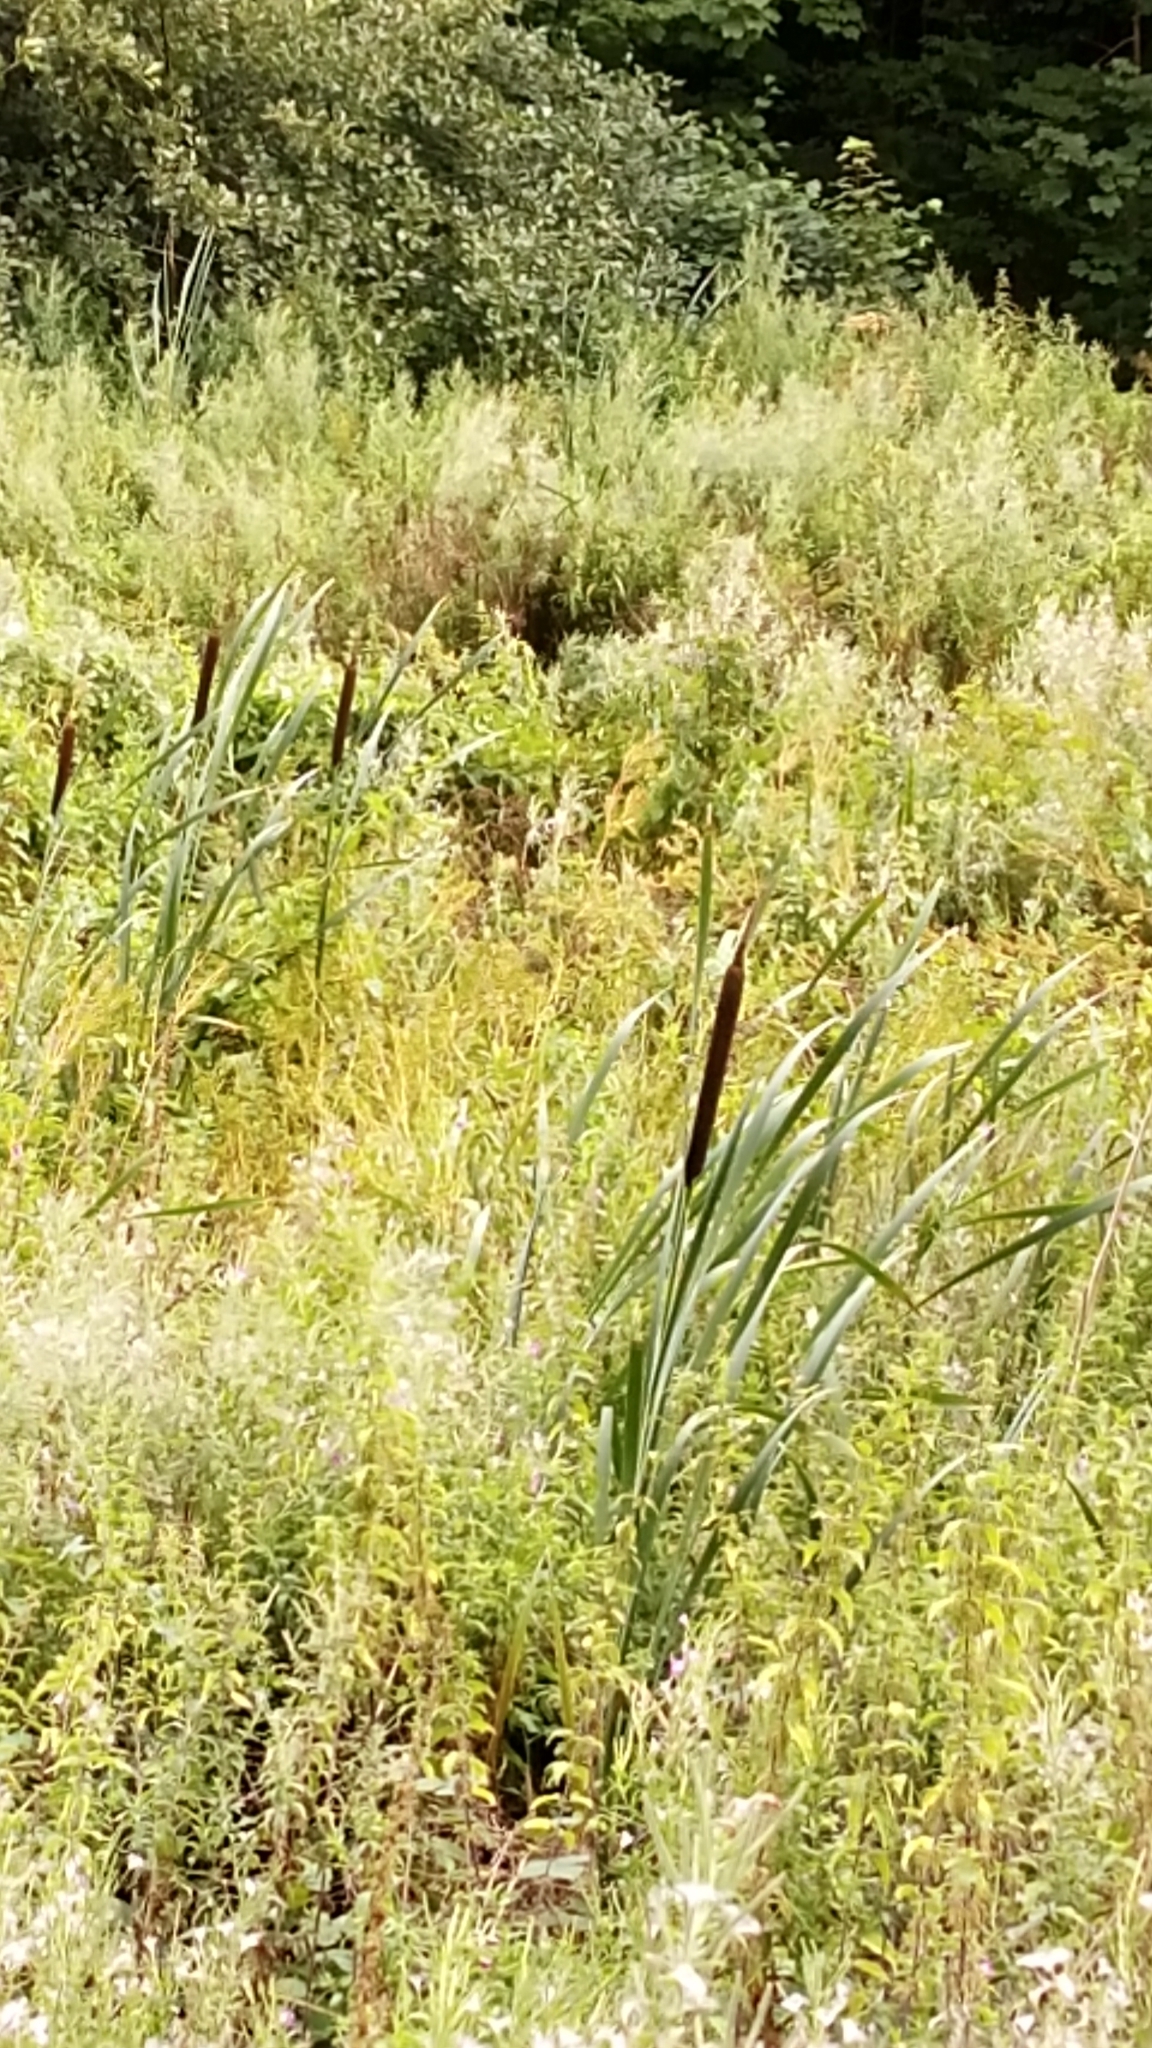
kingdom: Plantae
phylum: Tracheophyta
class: Liliopsida
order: Poales
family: Typhaceae
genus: Typha
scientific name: Typha latifolia
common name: Broadleaf cattail
